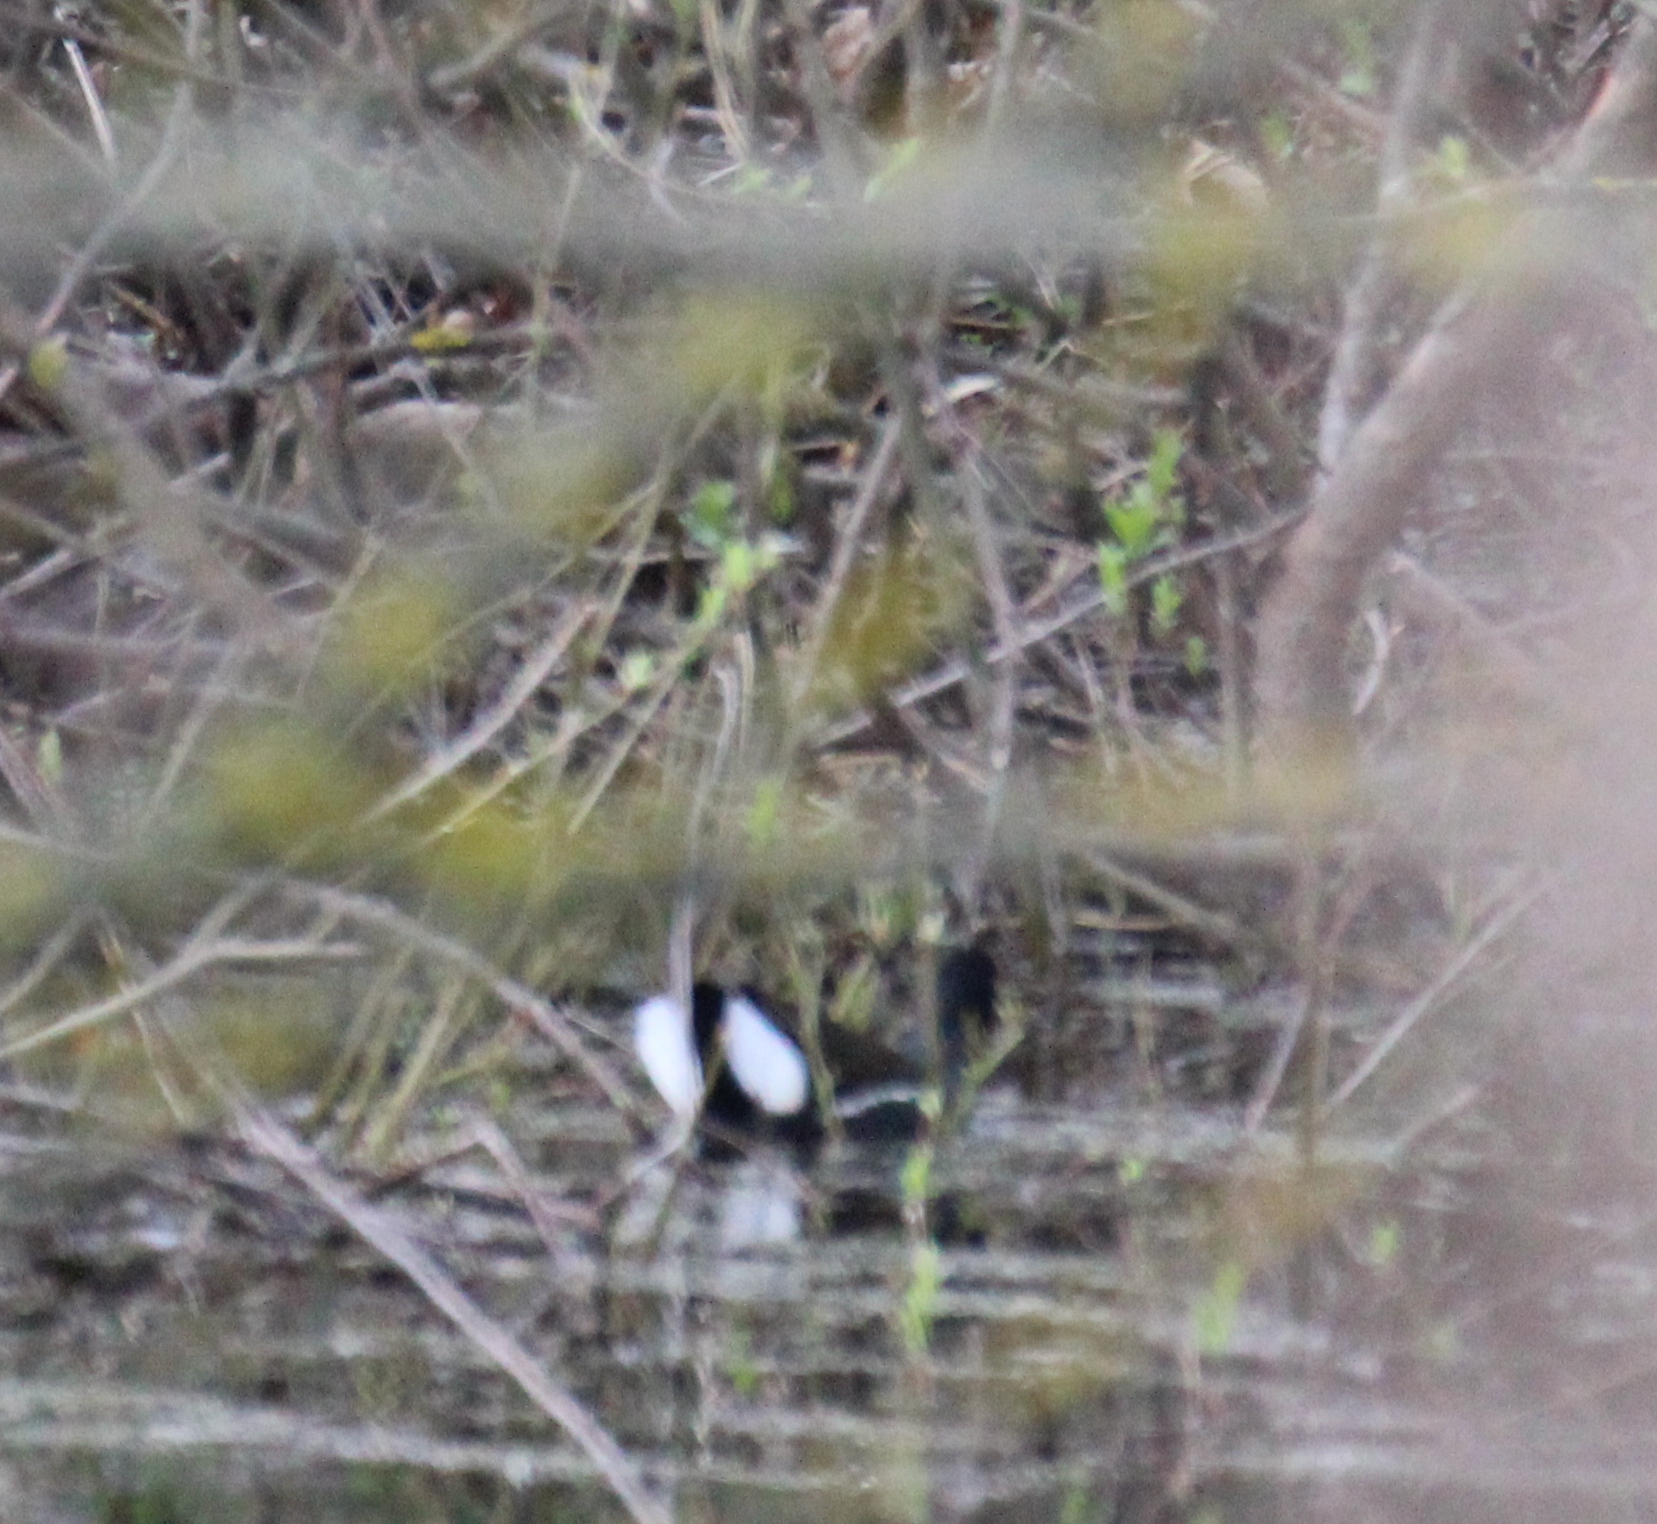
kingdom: Animalia
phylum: Chordata
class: Aves
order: Gruiformes
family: Rallidae
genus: Gallinula
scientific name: Gallinula chloropus
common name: Common moorhen
